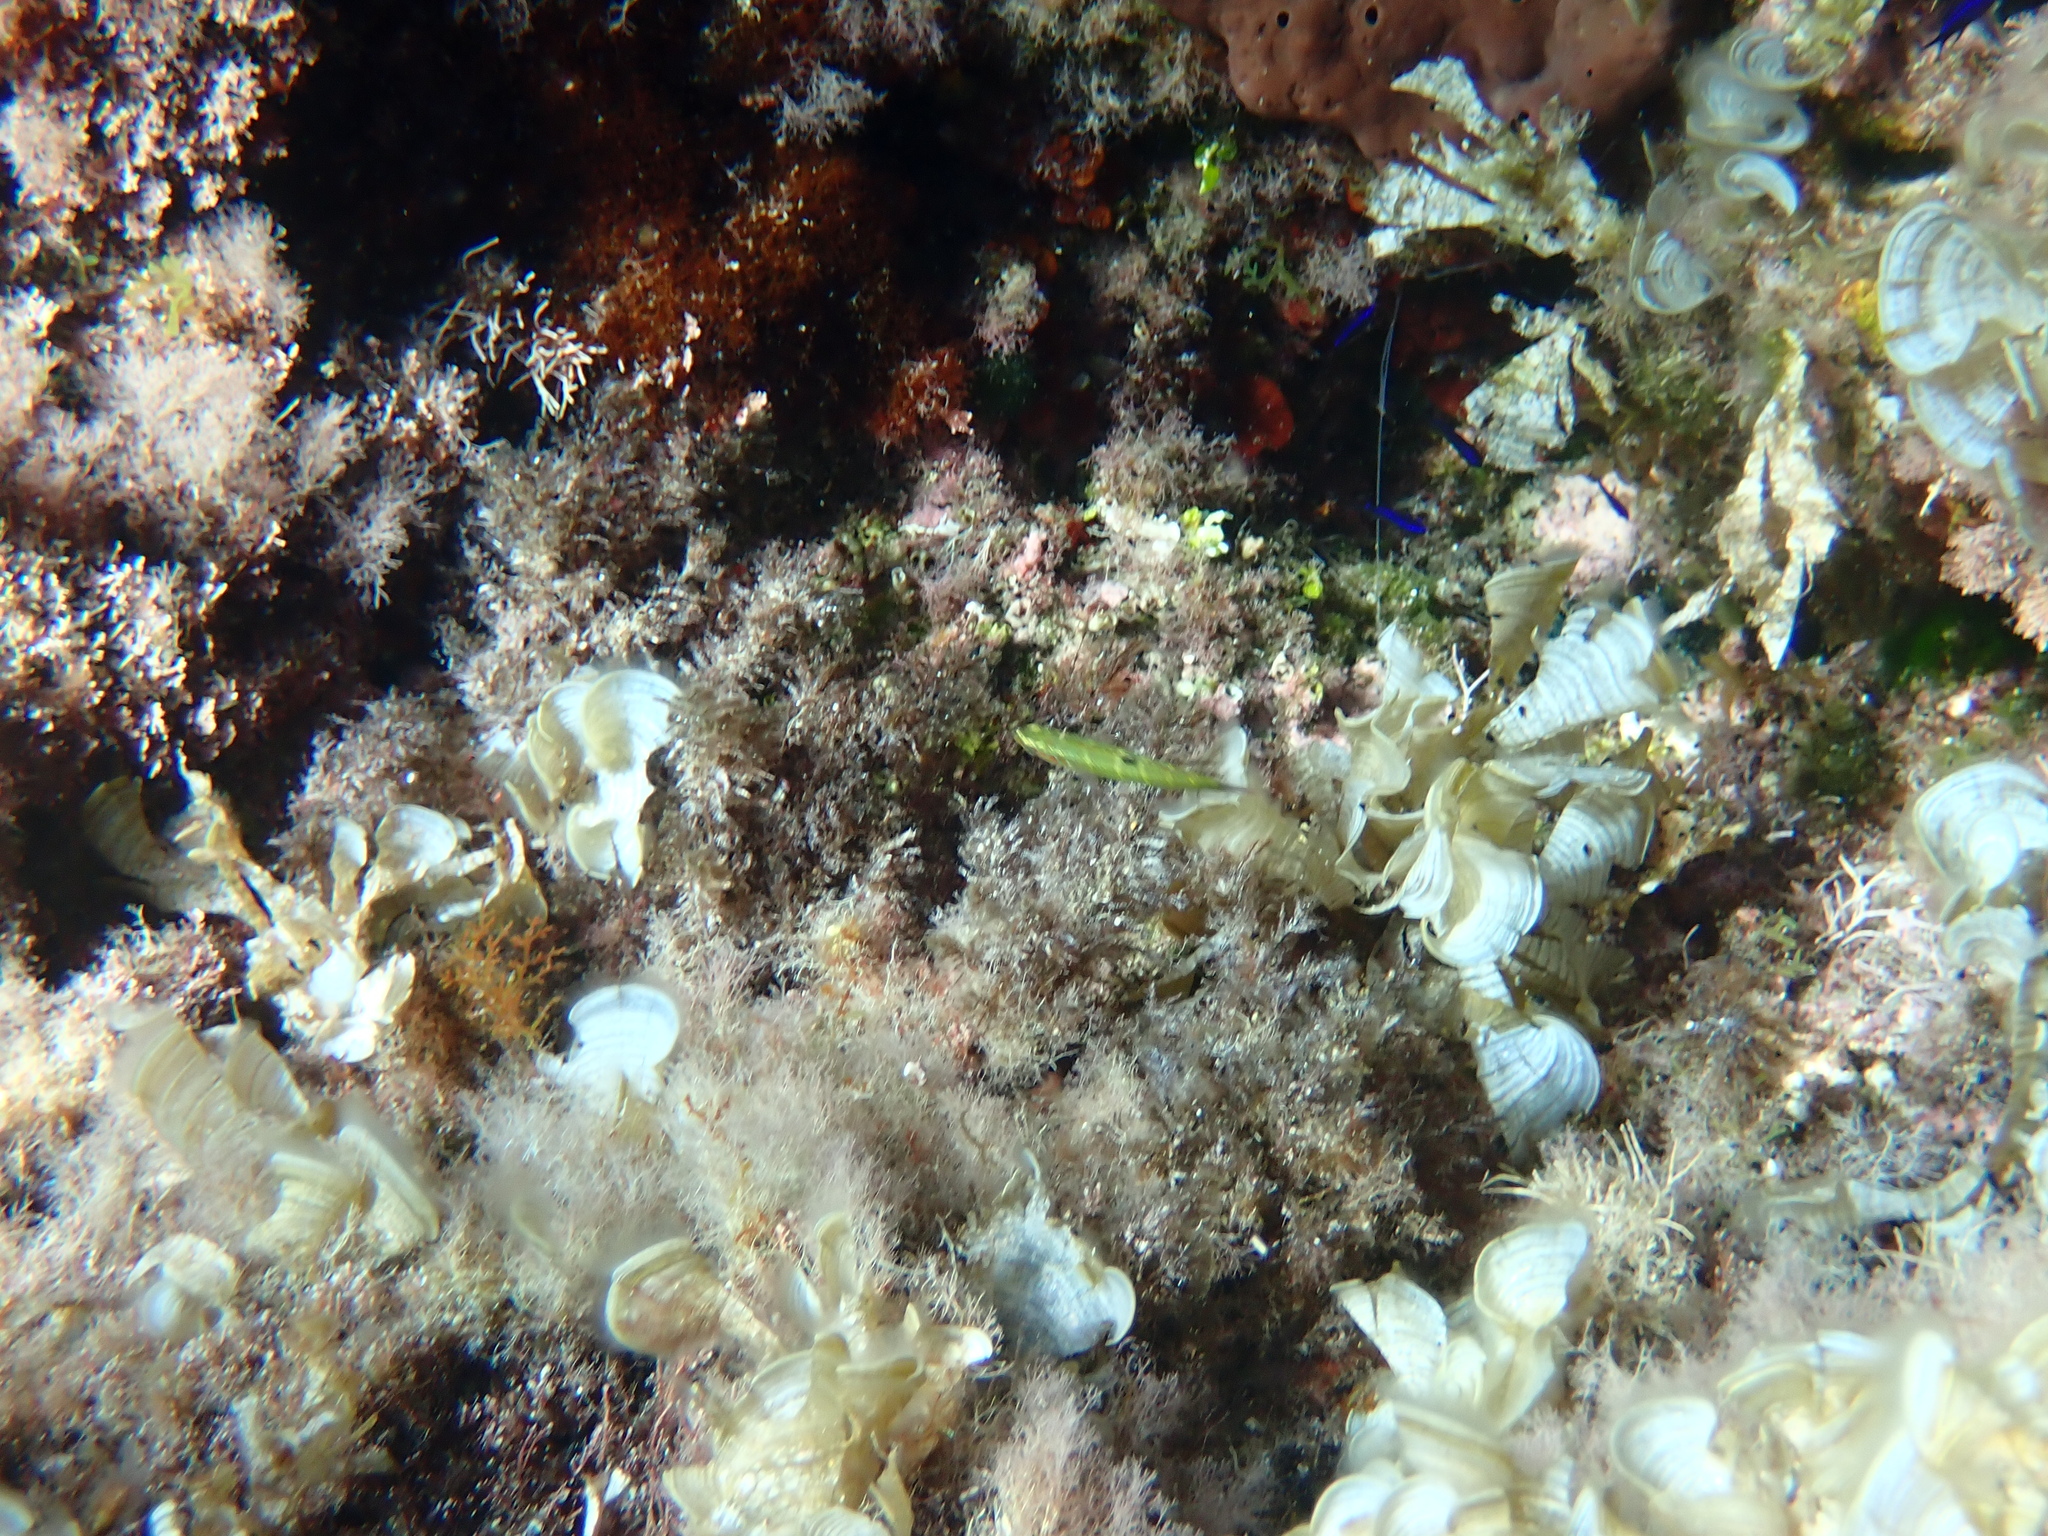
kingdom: Animalia
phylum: Chordata
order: Perciformes
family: Labridae
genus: Thalassoma
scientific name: Thalassoma pavo
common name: Ornate wrasse
